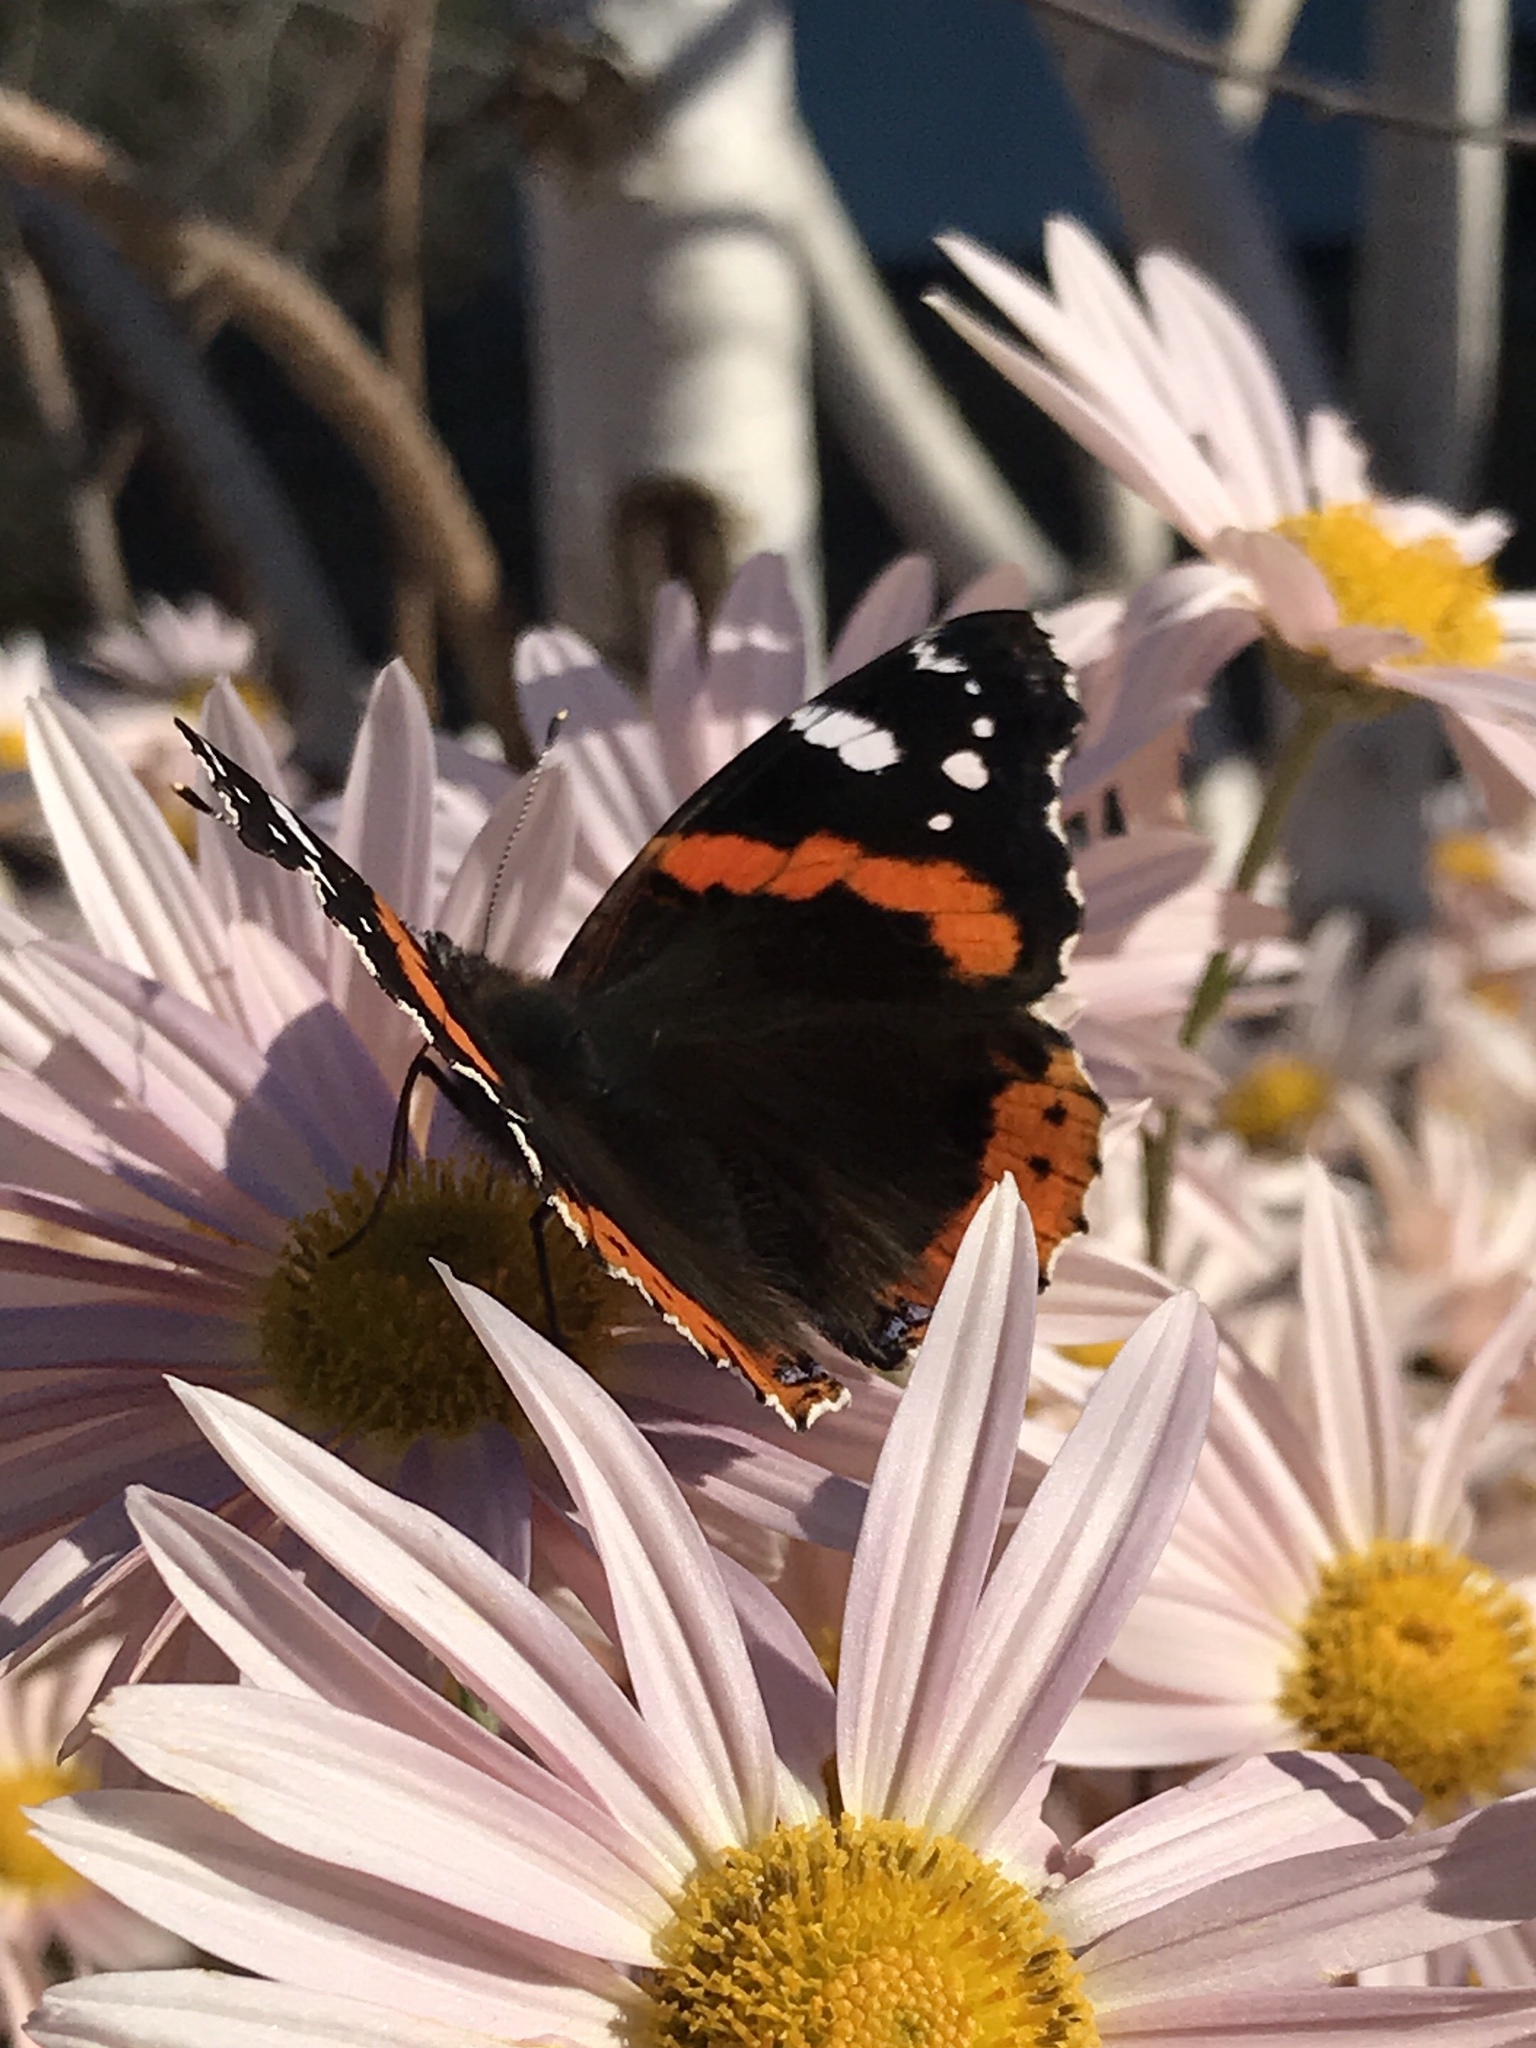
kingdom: Animalia
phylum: Arthropoda
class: Insecta
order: Lepidoptera
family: Nymphalidae
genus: Vanessa
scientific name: Vanessa atalanta
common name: Red admiral
